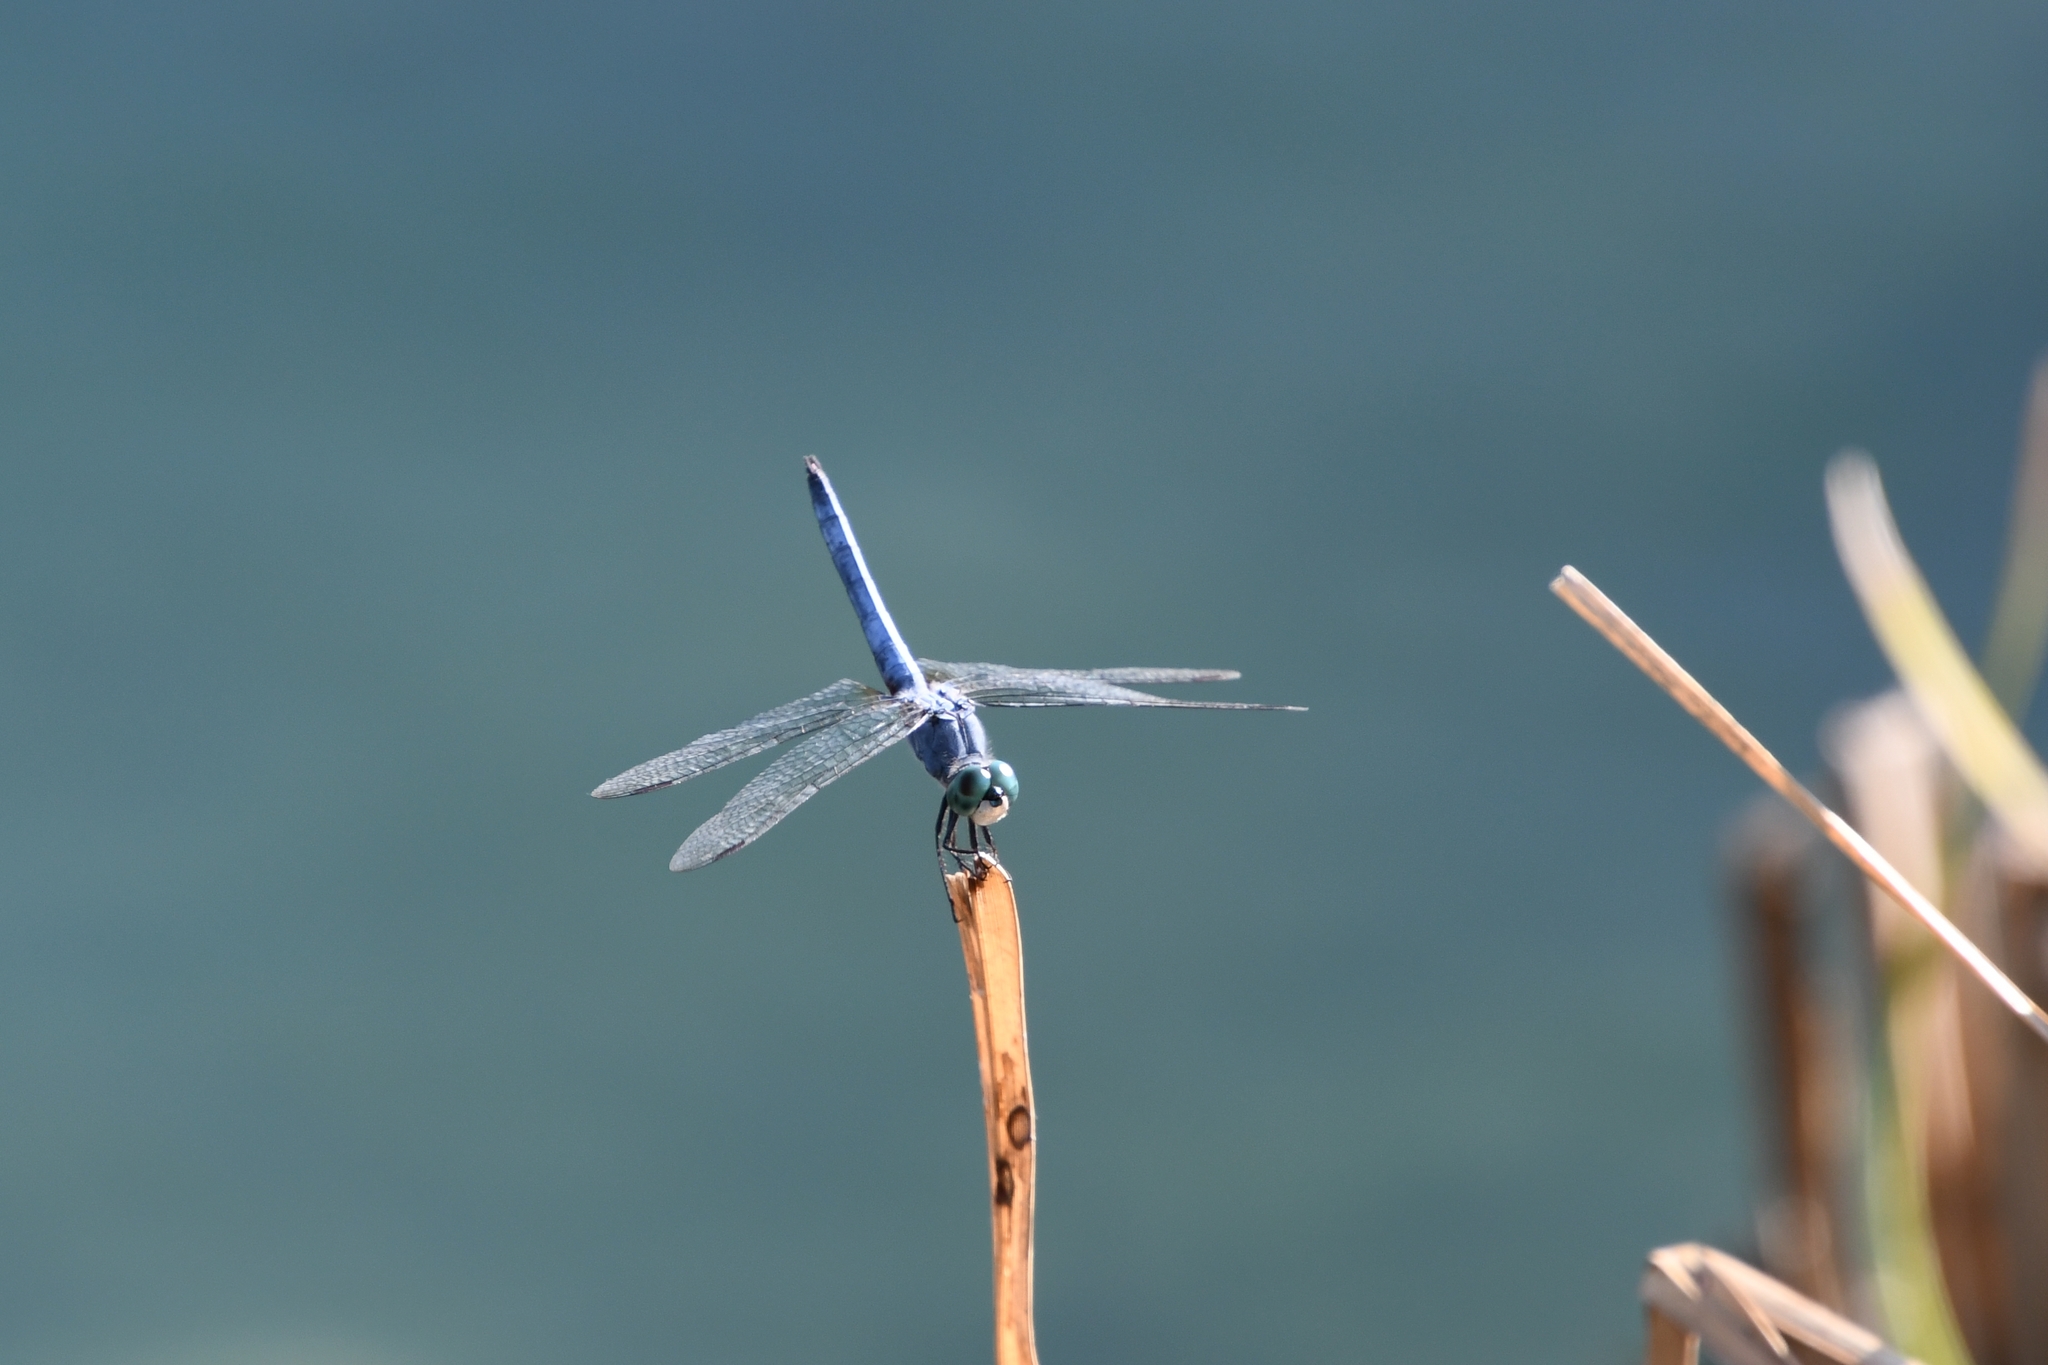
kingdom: Animalia
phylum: Arthropoda
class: Insecta
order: Odonata
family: Libellulidae
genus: Pachydiplax
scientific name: Pachydiplax longipennis
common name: Blue dasher
